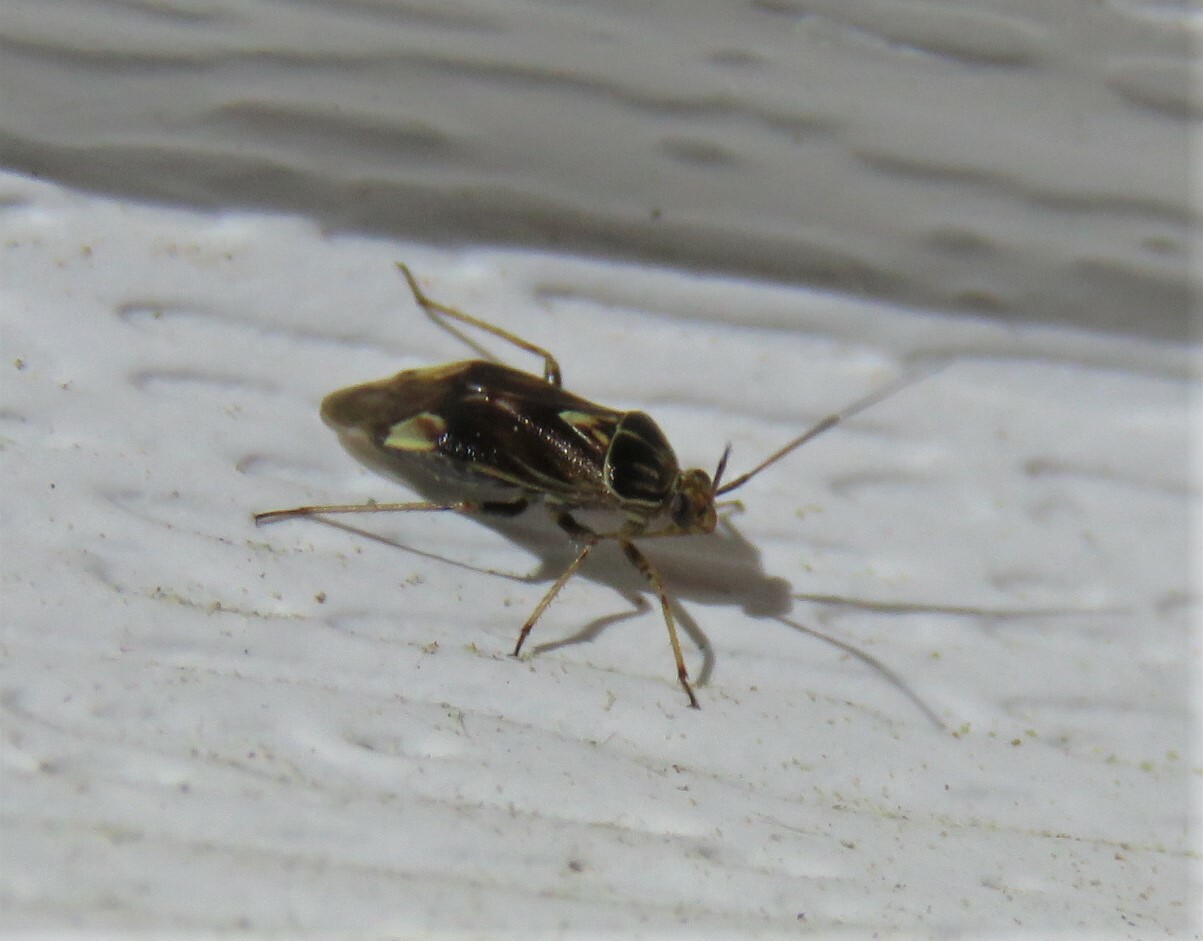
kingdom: Animalia
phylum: Arthropoda
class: Insecta
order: Hemiptera
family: Miridae
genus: Lygus
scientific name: Lygus lineolaris
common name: North american tarnished plant bug
